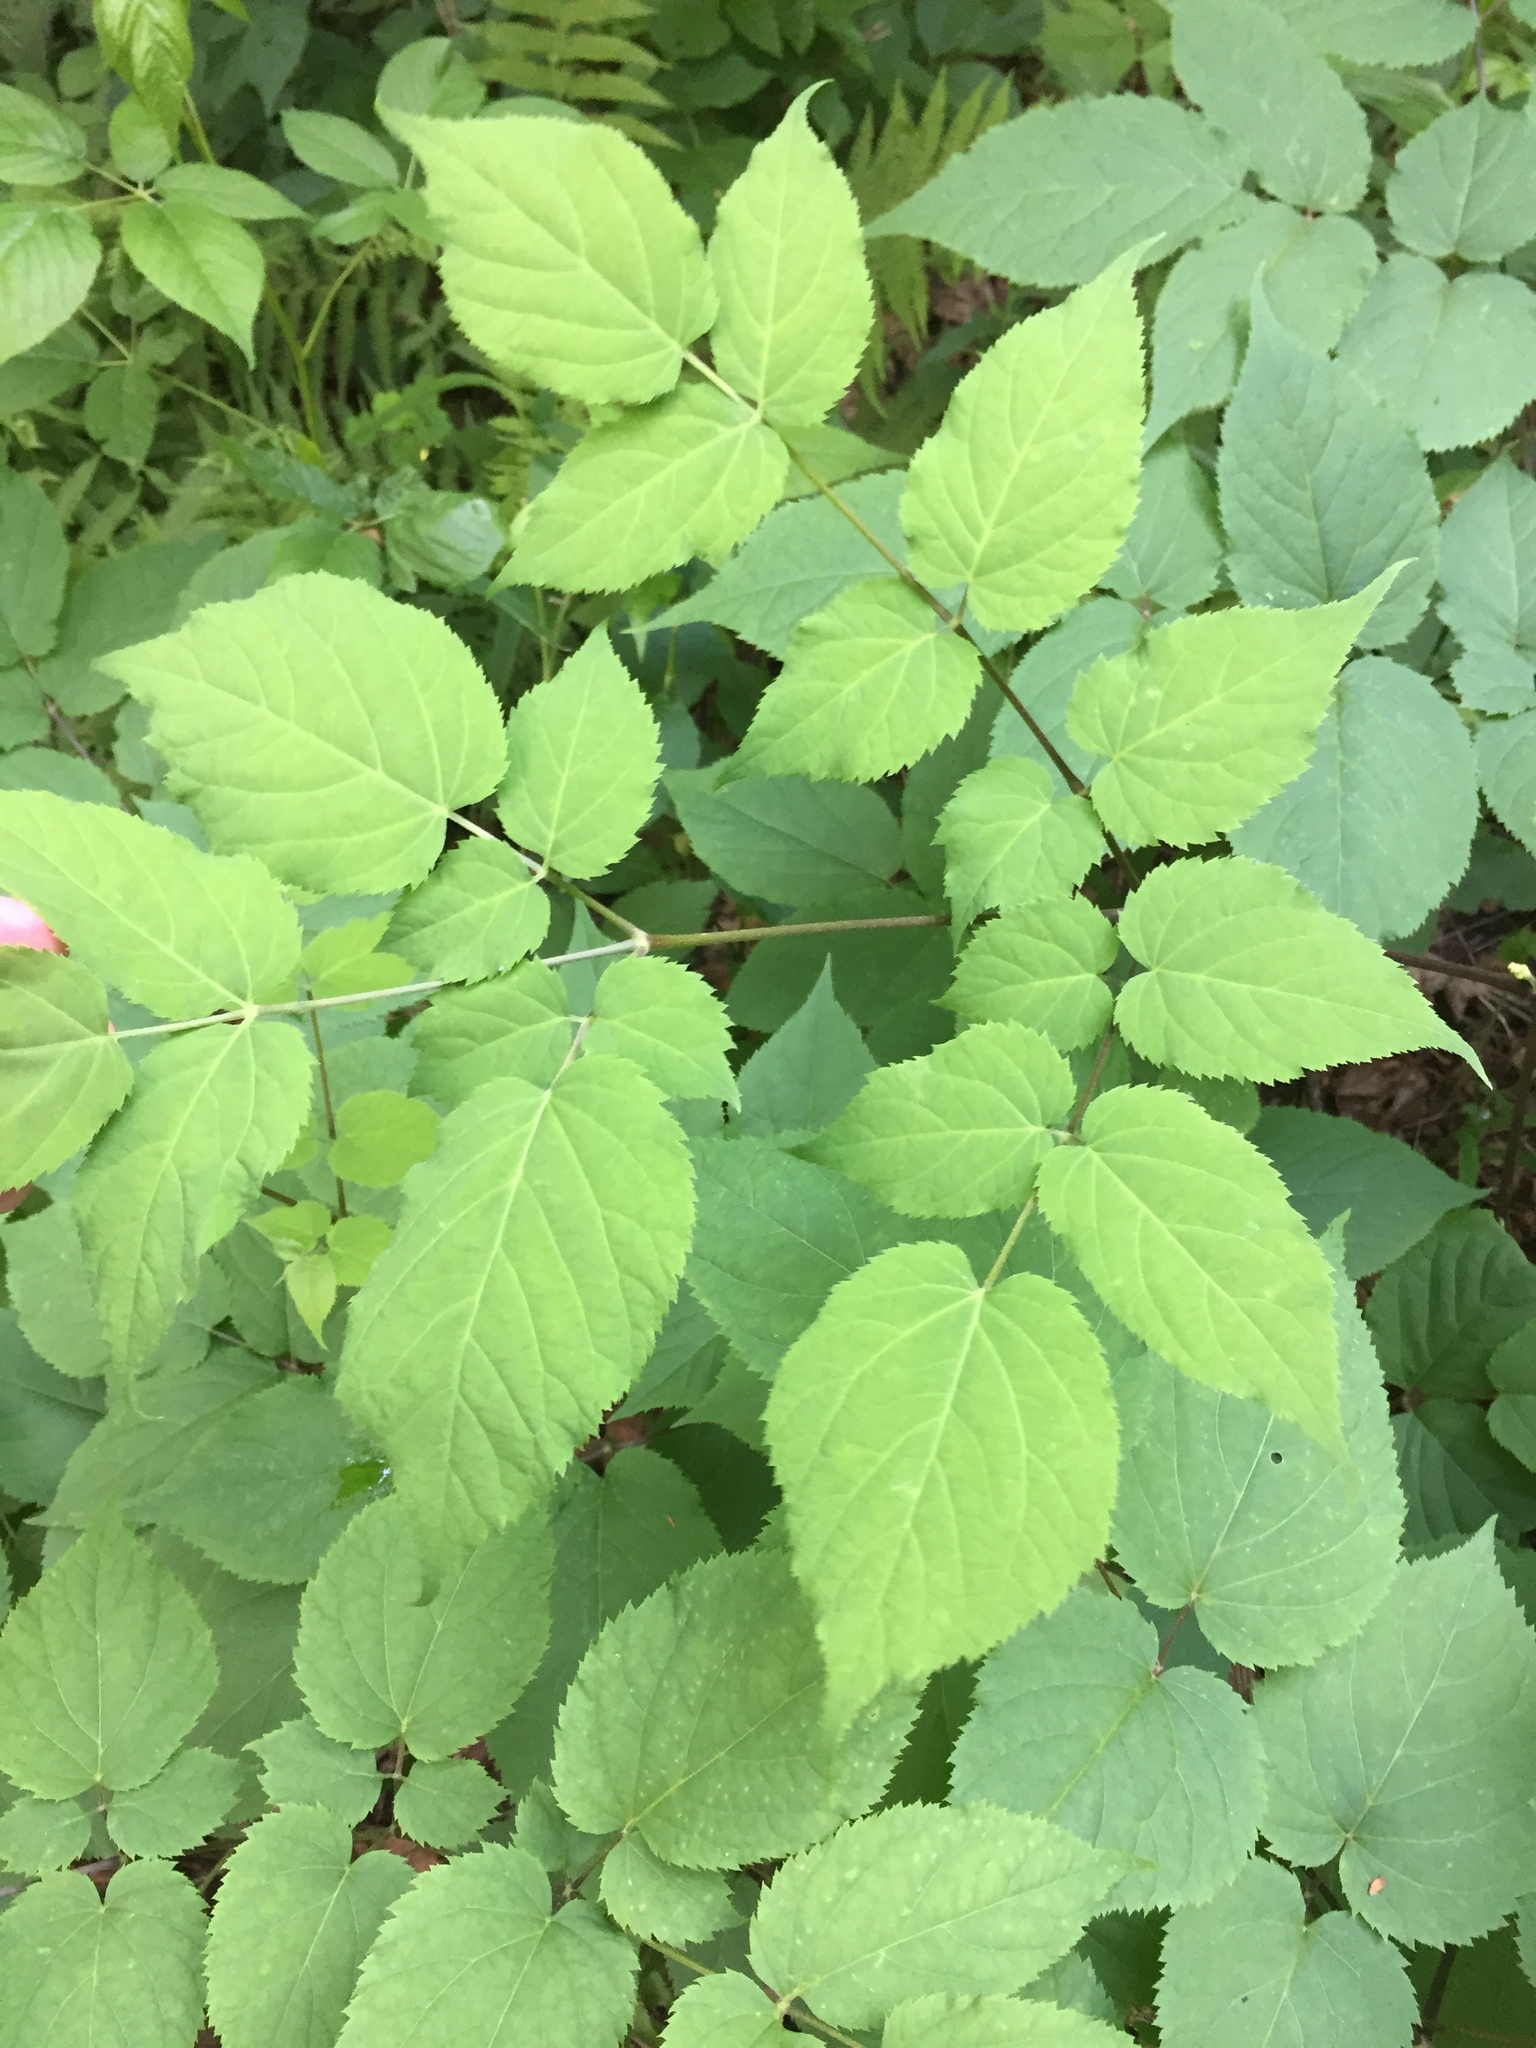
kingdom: Plantae
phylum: Tracheophyta
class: Magnoliopsida
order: Apiales
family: Araliaceae
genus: Aralia
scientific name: Aralia racemosa
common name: American-spikenard
